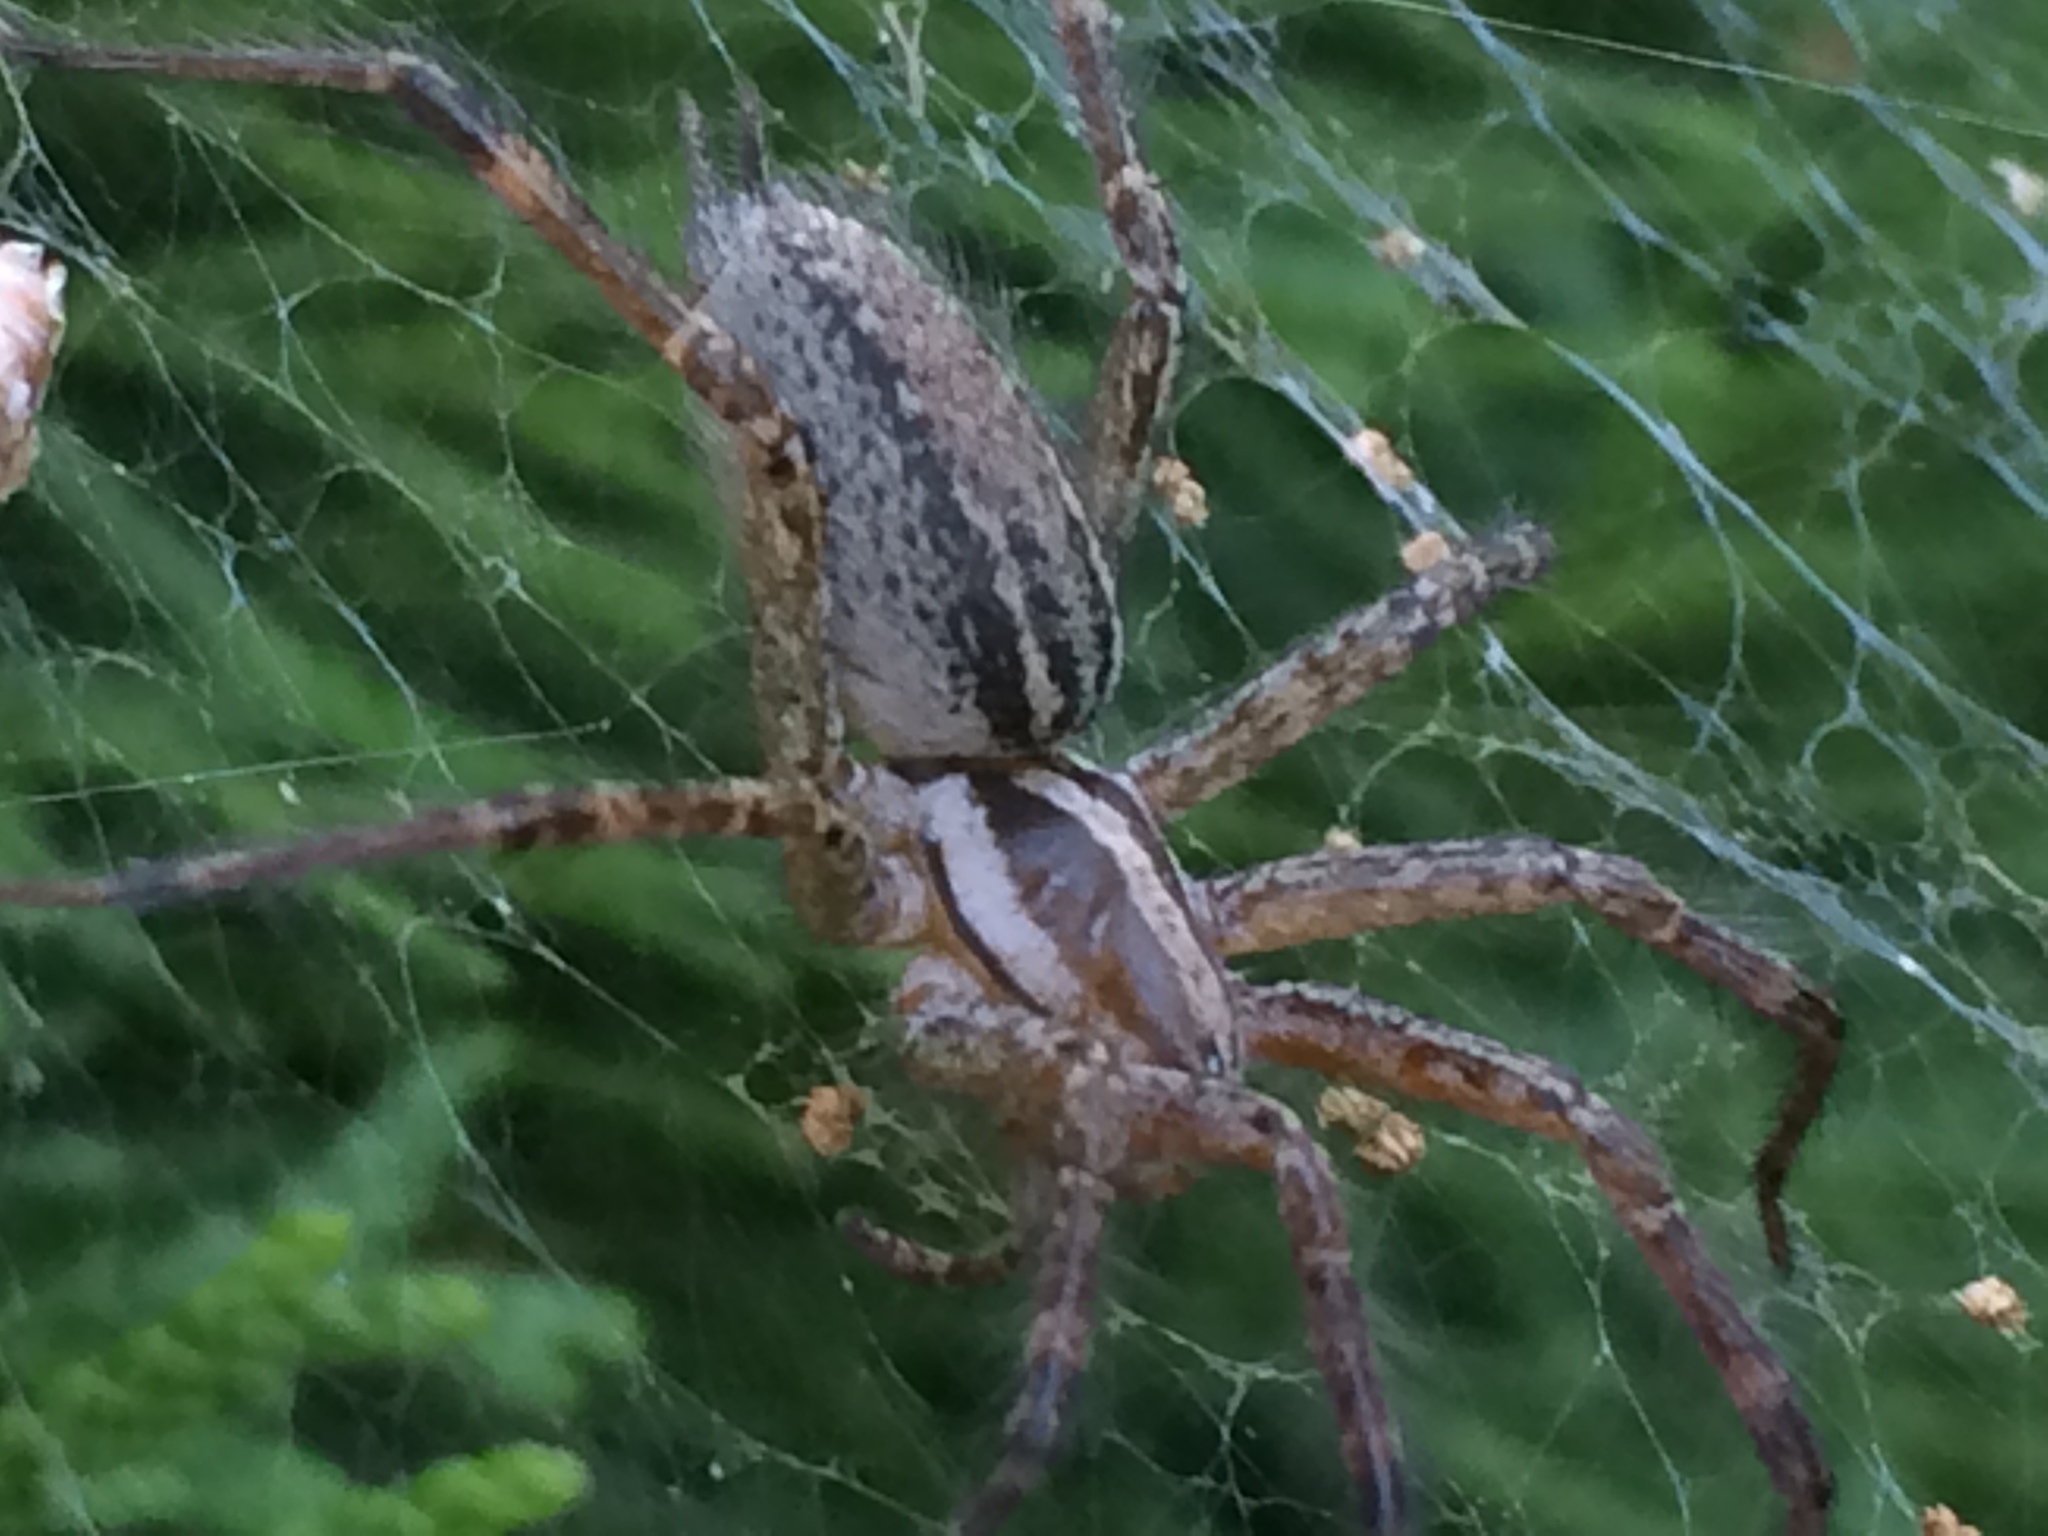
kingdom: Animalia
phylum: Arthropoda
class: Arachnida
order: Araneae
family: Agelenidae
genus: Agelenopsis
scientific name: Agelenopsis
